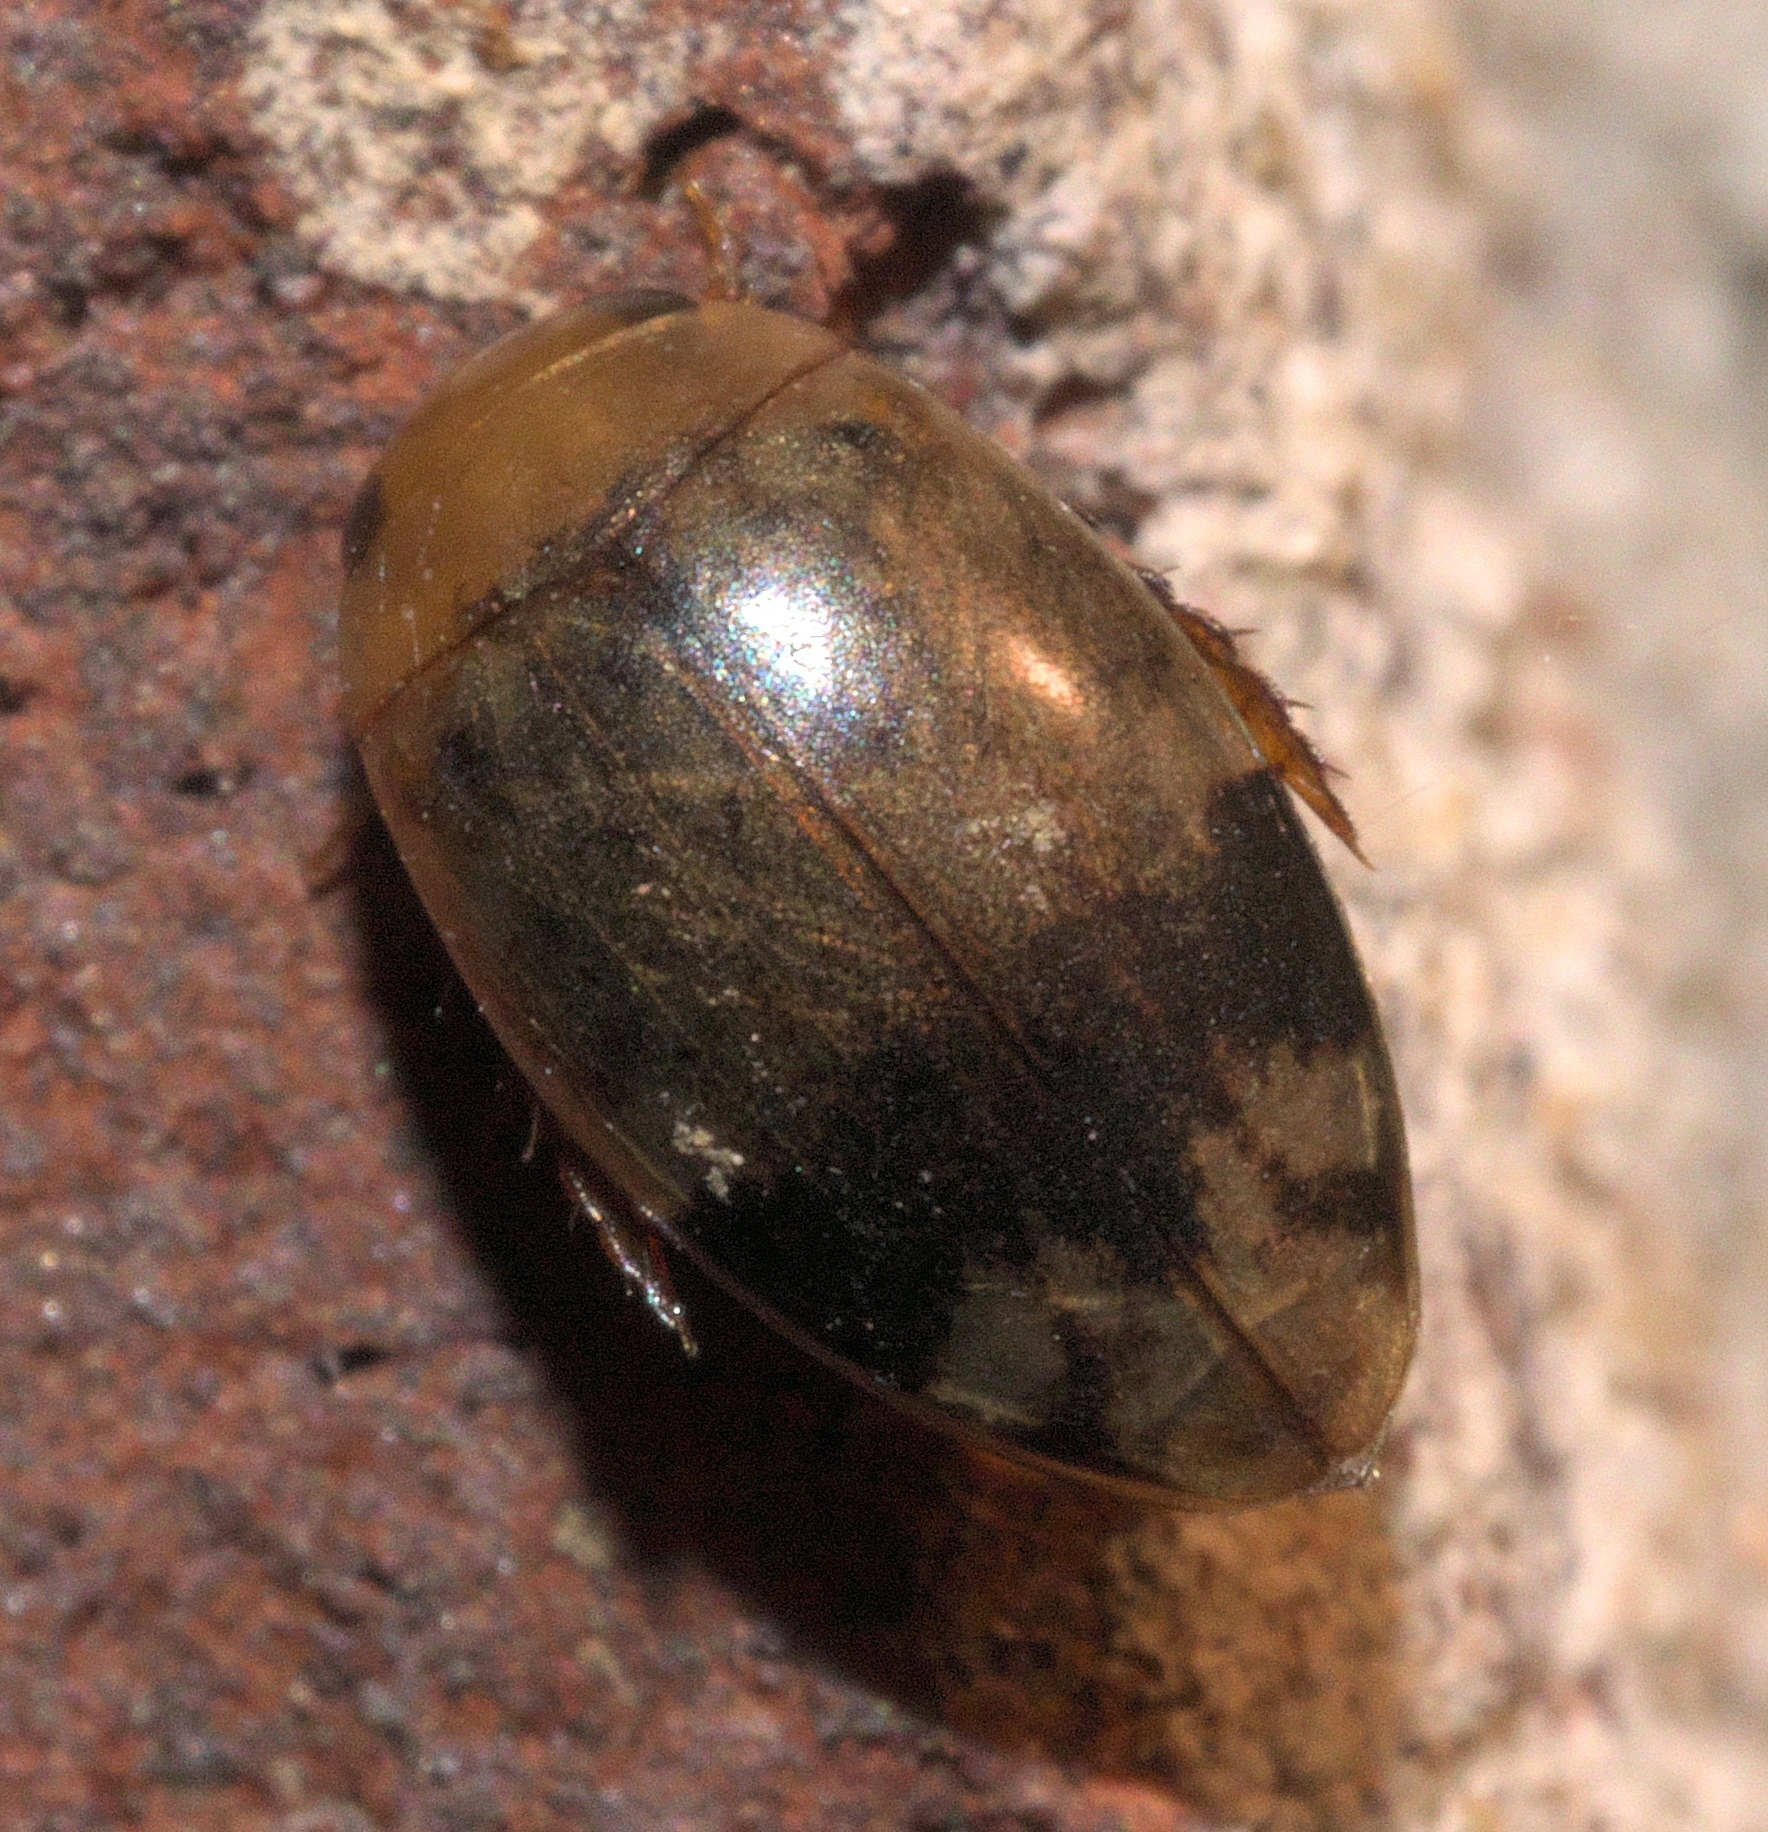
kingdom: Animalia
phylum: Arthropoda
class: Insecta
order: Coleoptera
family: Dytiscidae
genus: Laccophilus
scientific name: Laccophilus fasciatus
